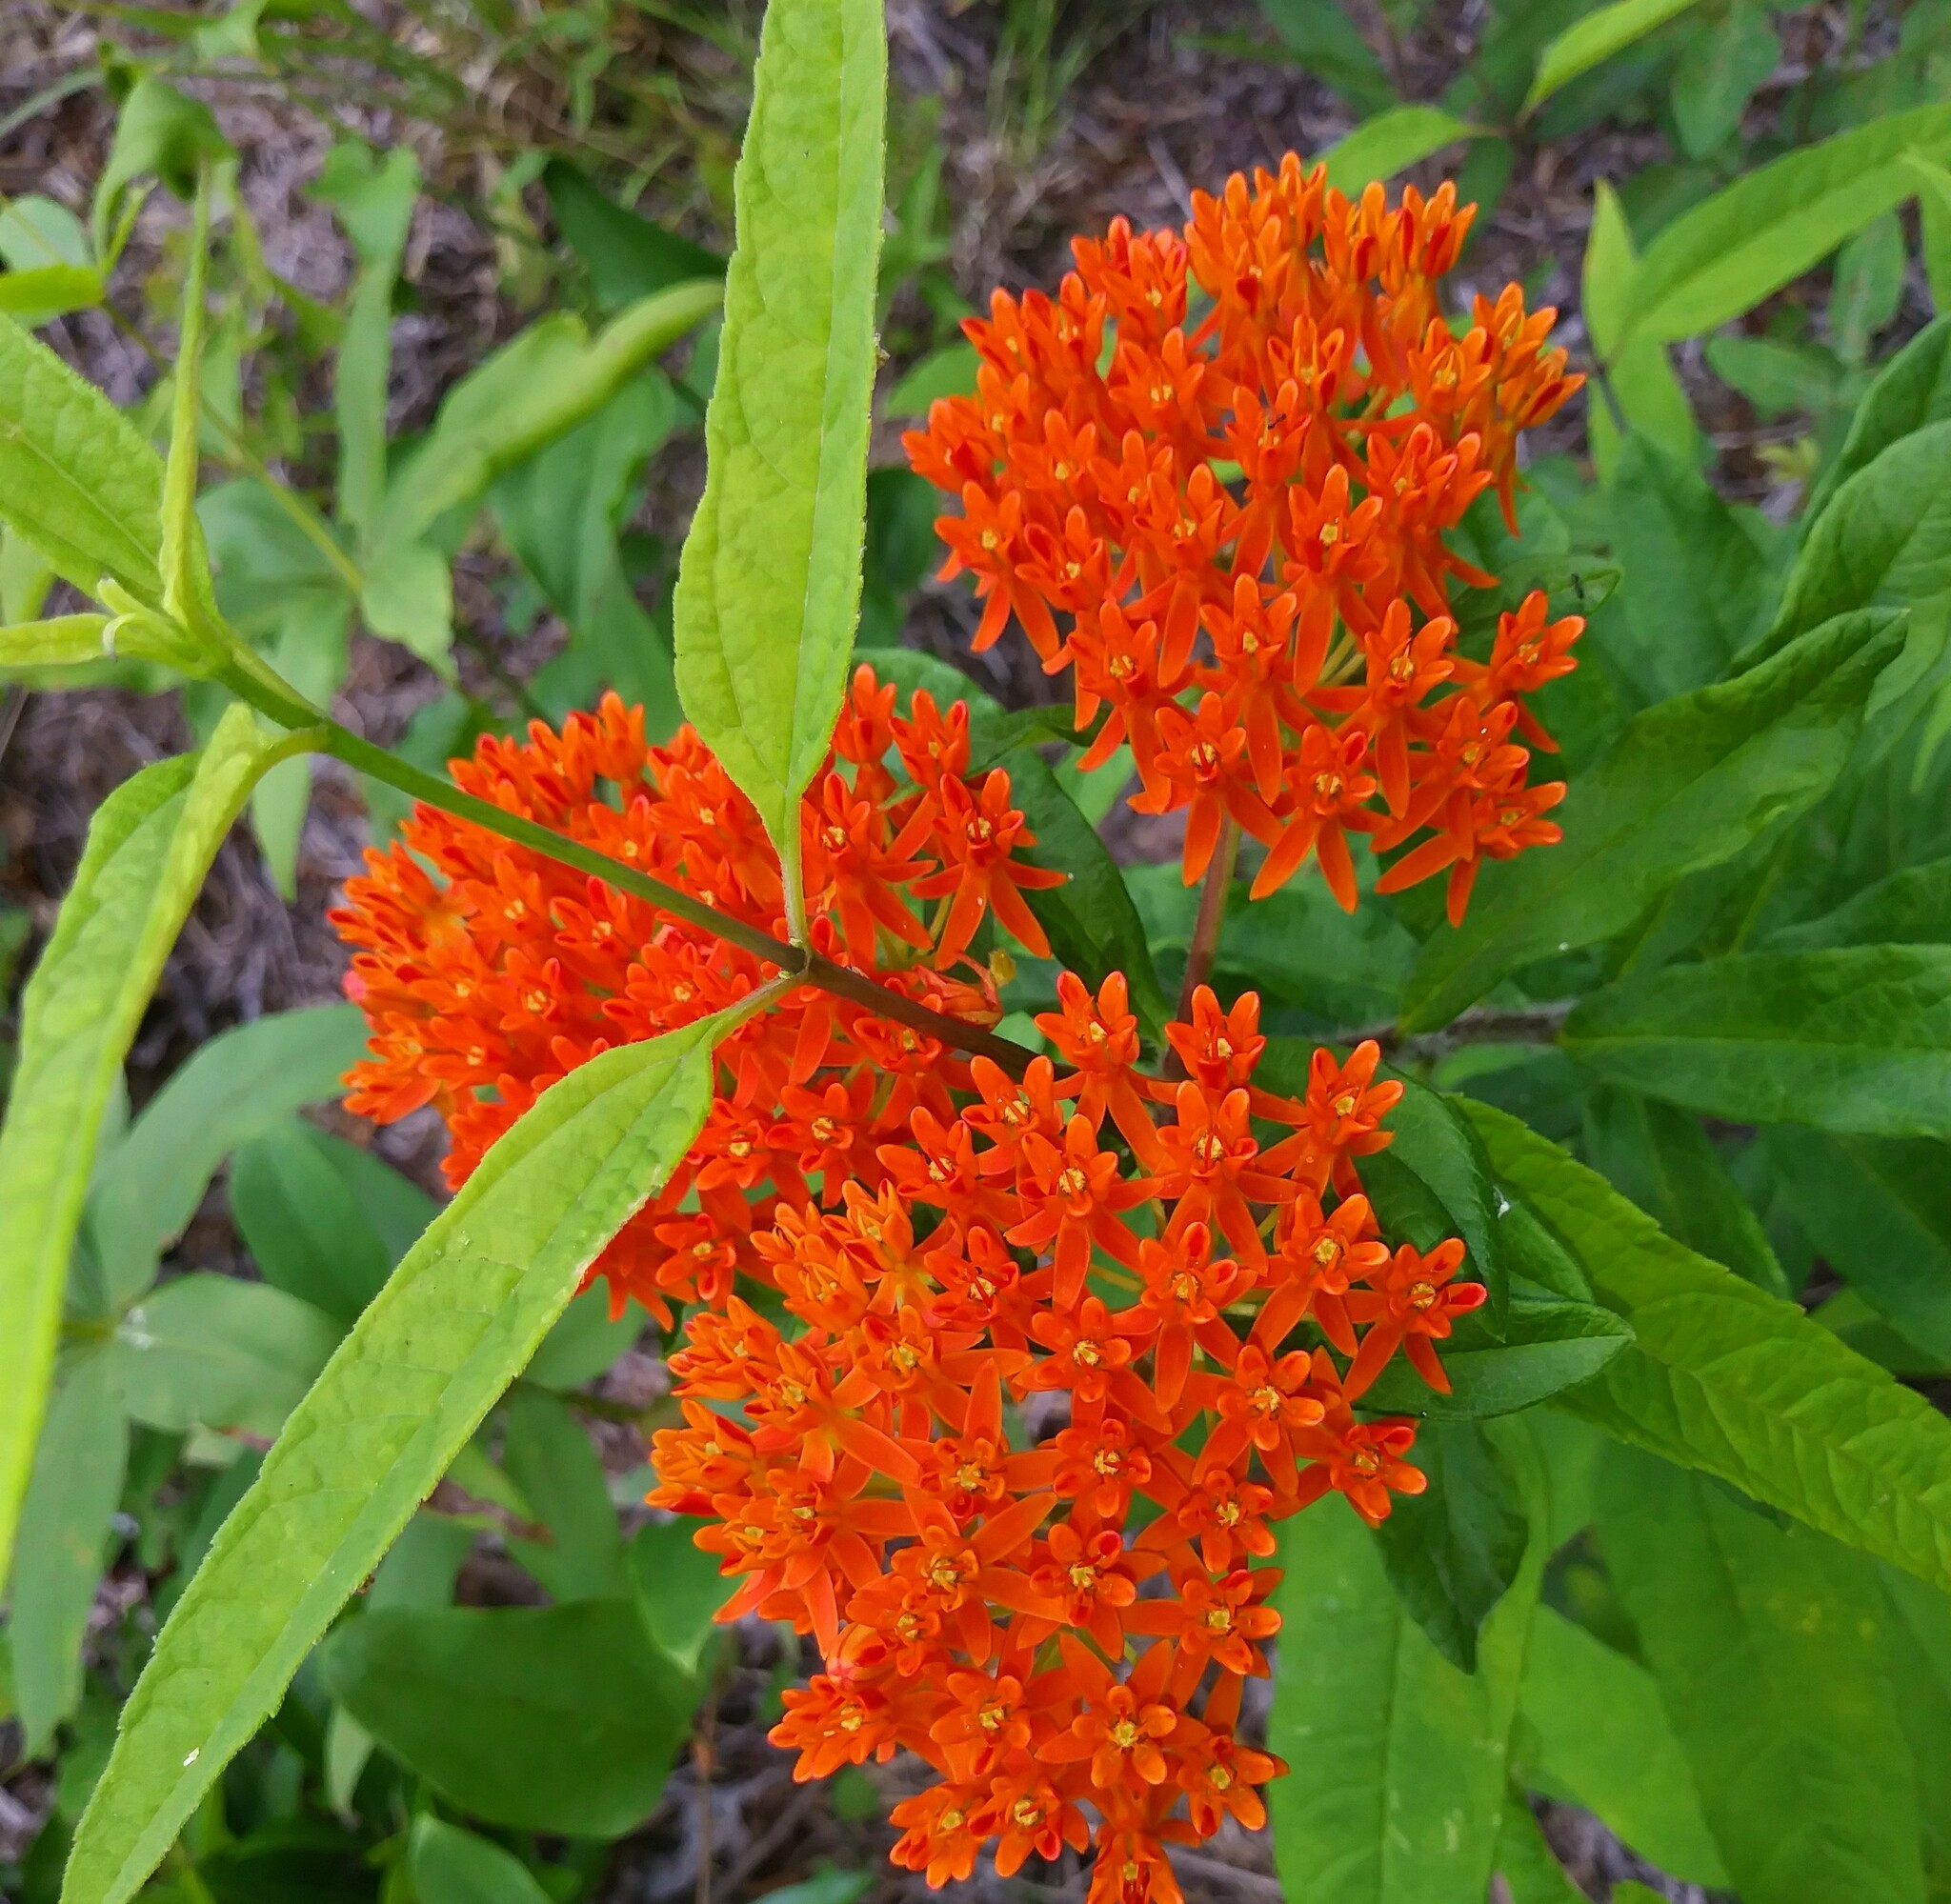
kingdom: Plantae
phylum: Tracheophyta
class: Magnoliopsida
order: Gentianales
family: Apocynaceae
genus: Asclepias
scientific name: Asclepias tuberosa
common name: Butterfly milkweed
